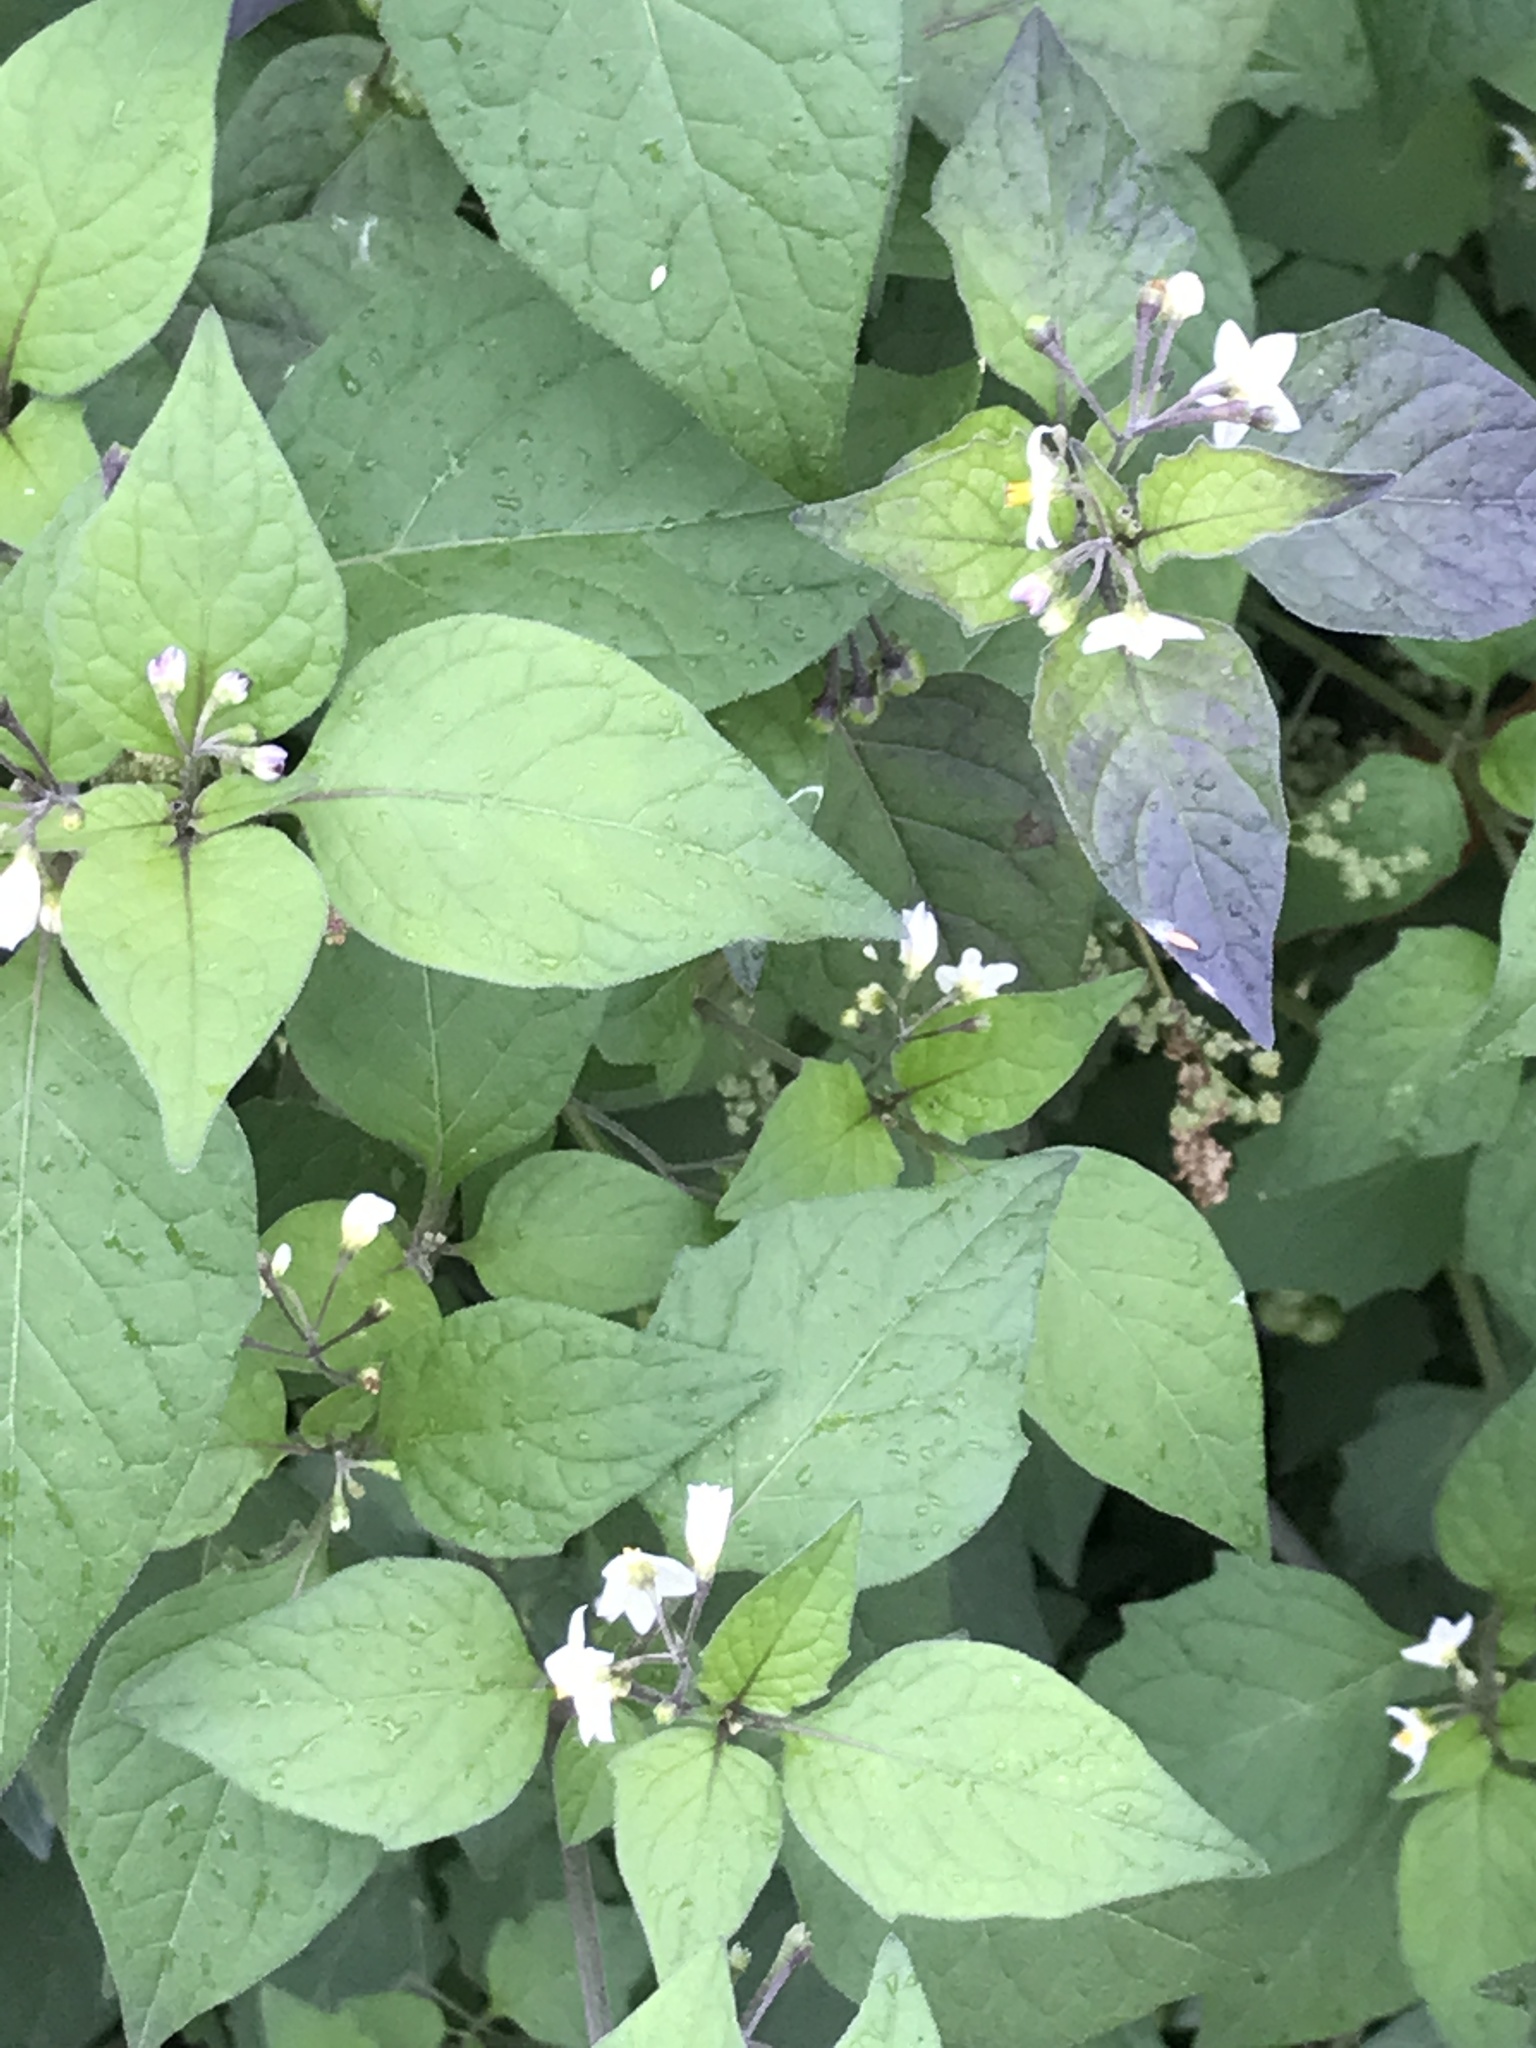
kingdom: Plantae
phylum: Tracheophyta
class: Magnoliopsida
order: Solanales
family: Solanaceae
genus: Solanum
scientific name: Solanum nigrum
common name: Black nightshade
